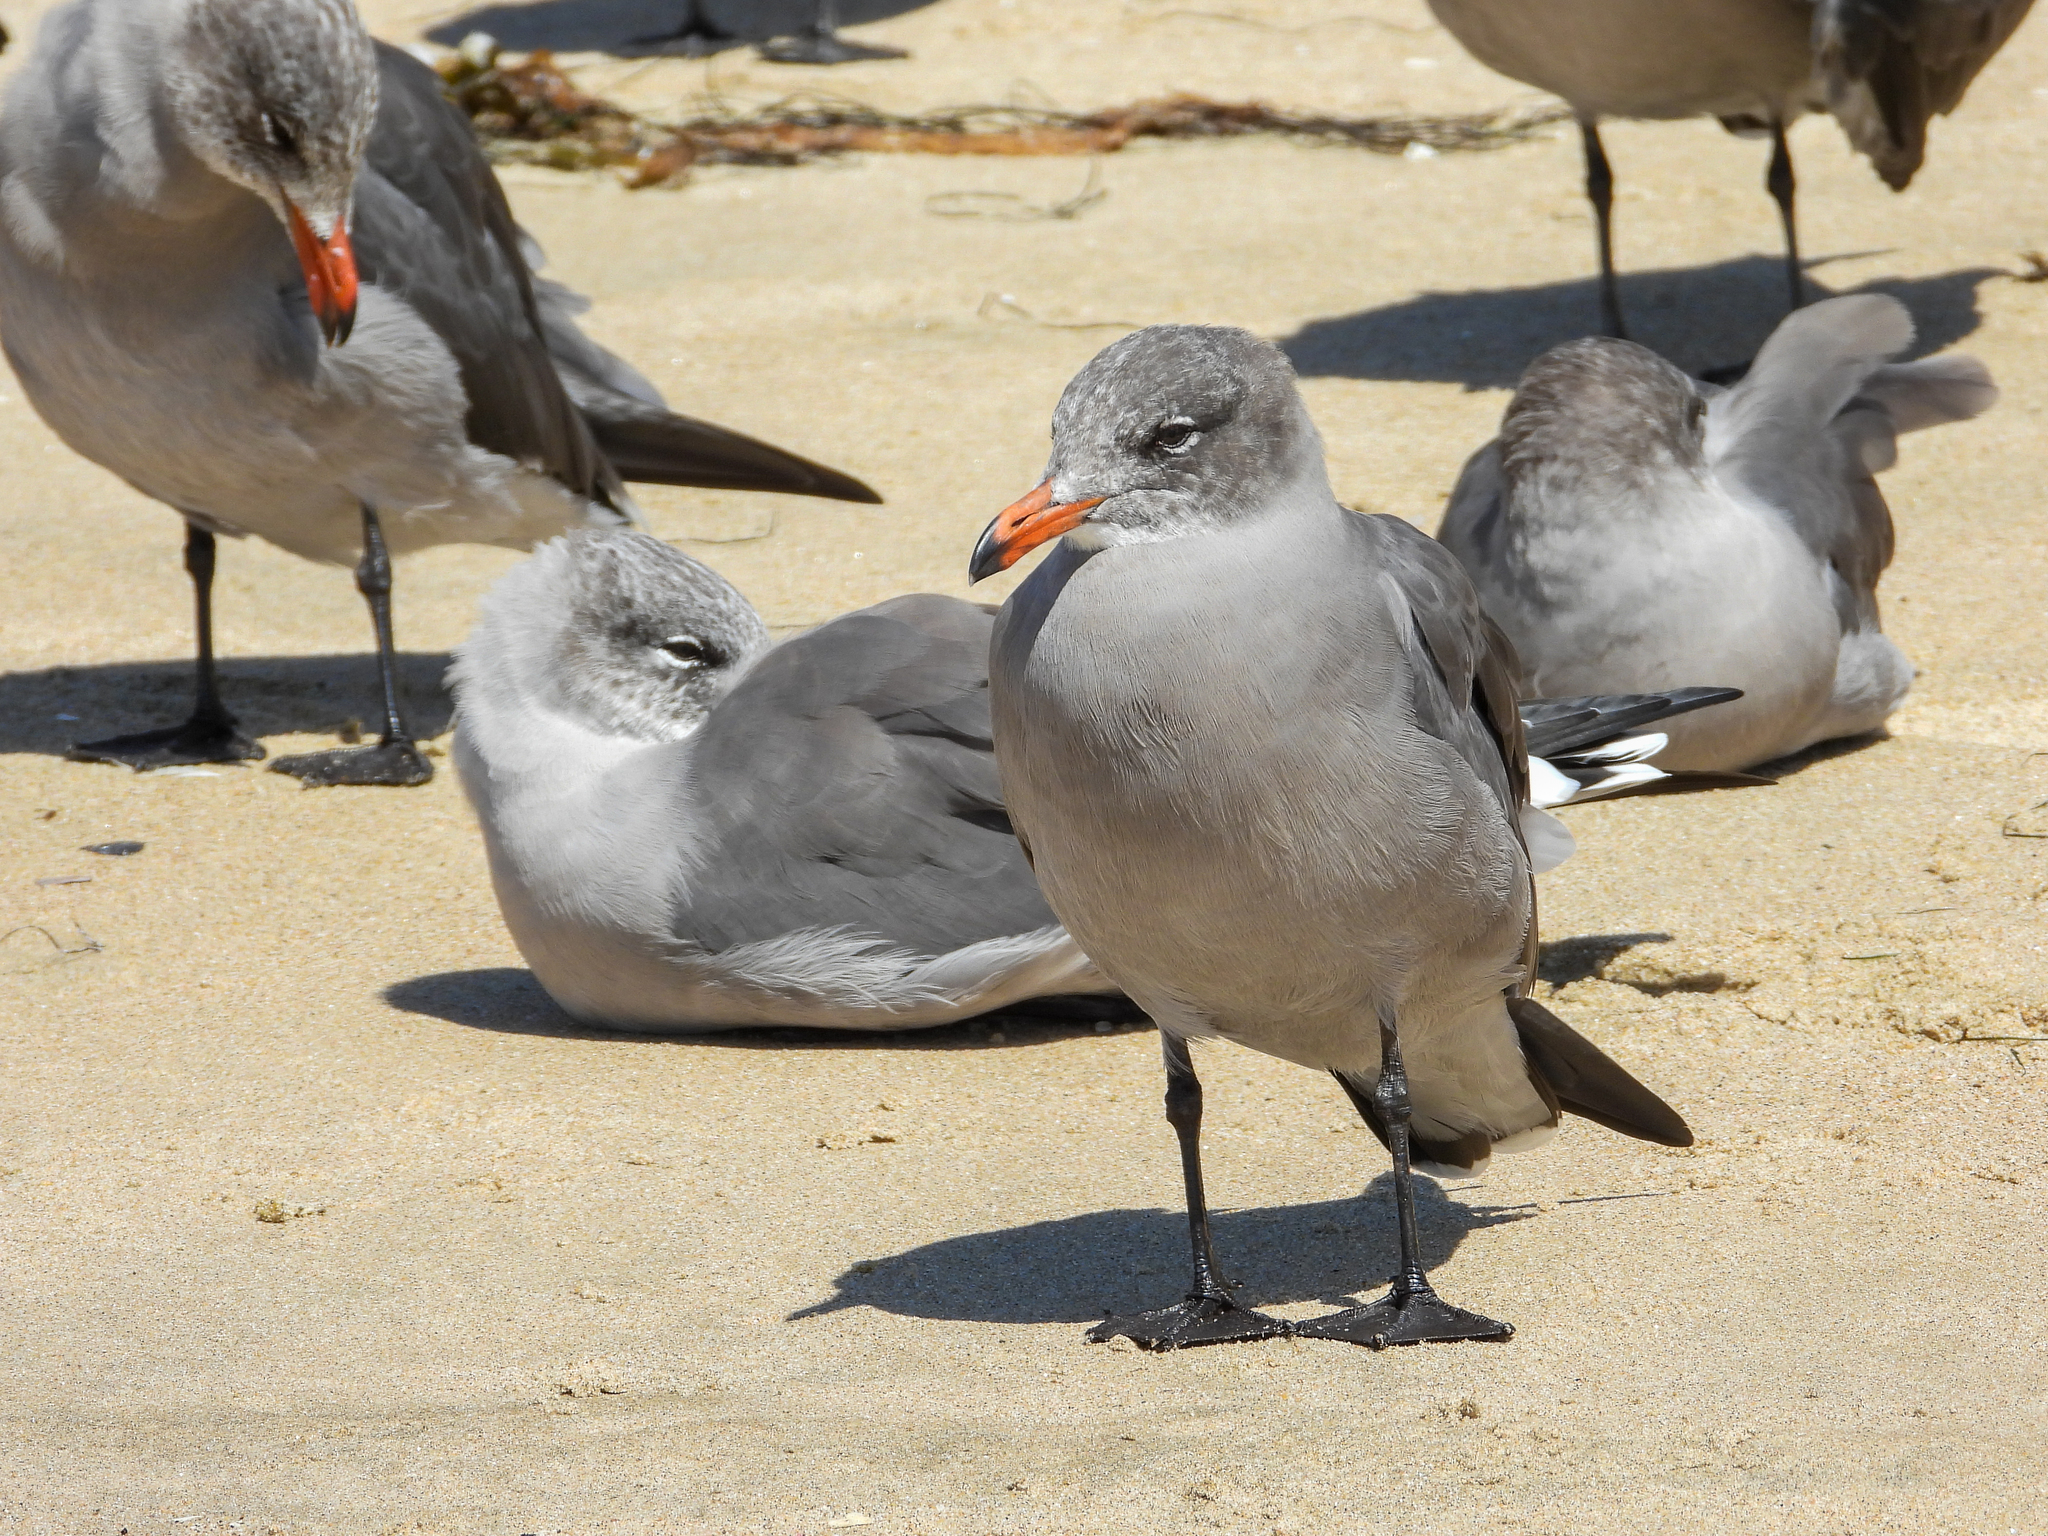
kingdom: Animalia
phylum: Chordata
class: Aves
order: Charadriiformes
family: Laridae
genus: Larus
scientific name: Larus heermanni
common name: Heermann's gull
